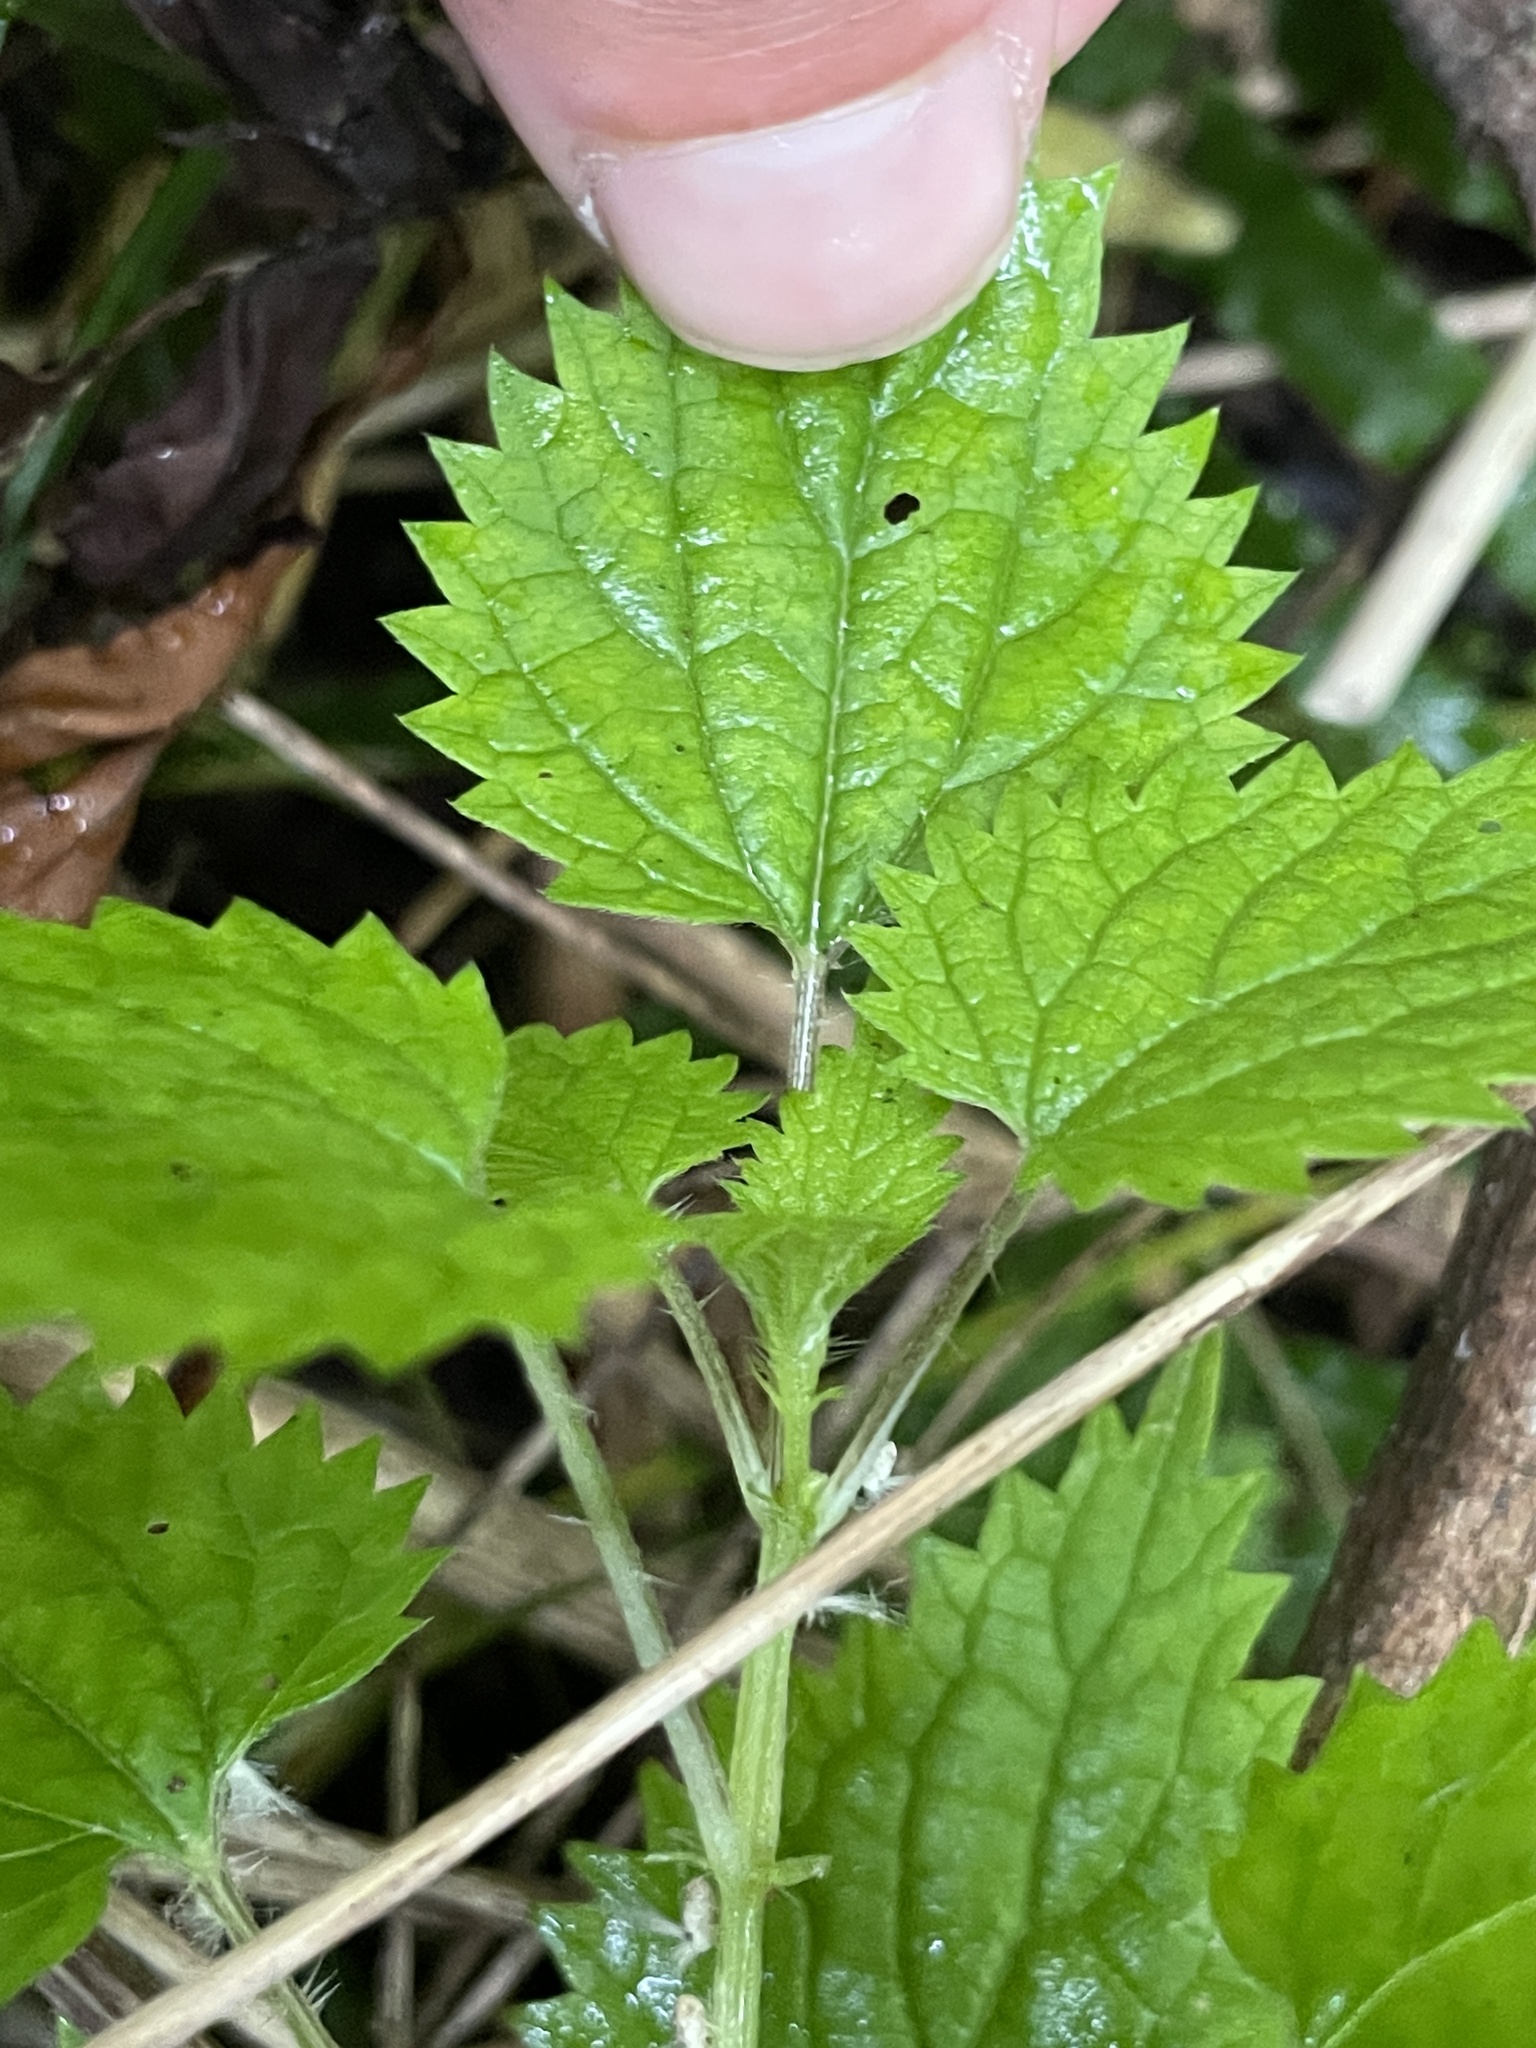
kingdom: Plantae
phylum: Tracheophyta
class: Magnoliopsida
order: Rosales
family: Urticaceae
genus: Urtica
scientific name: Urtica sykesii
